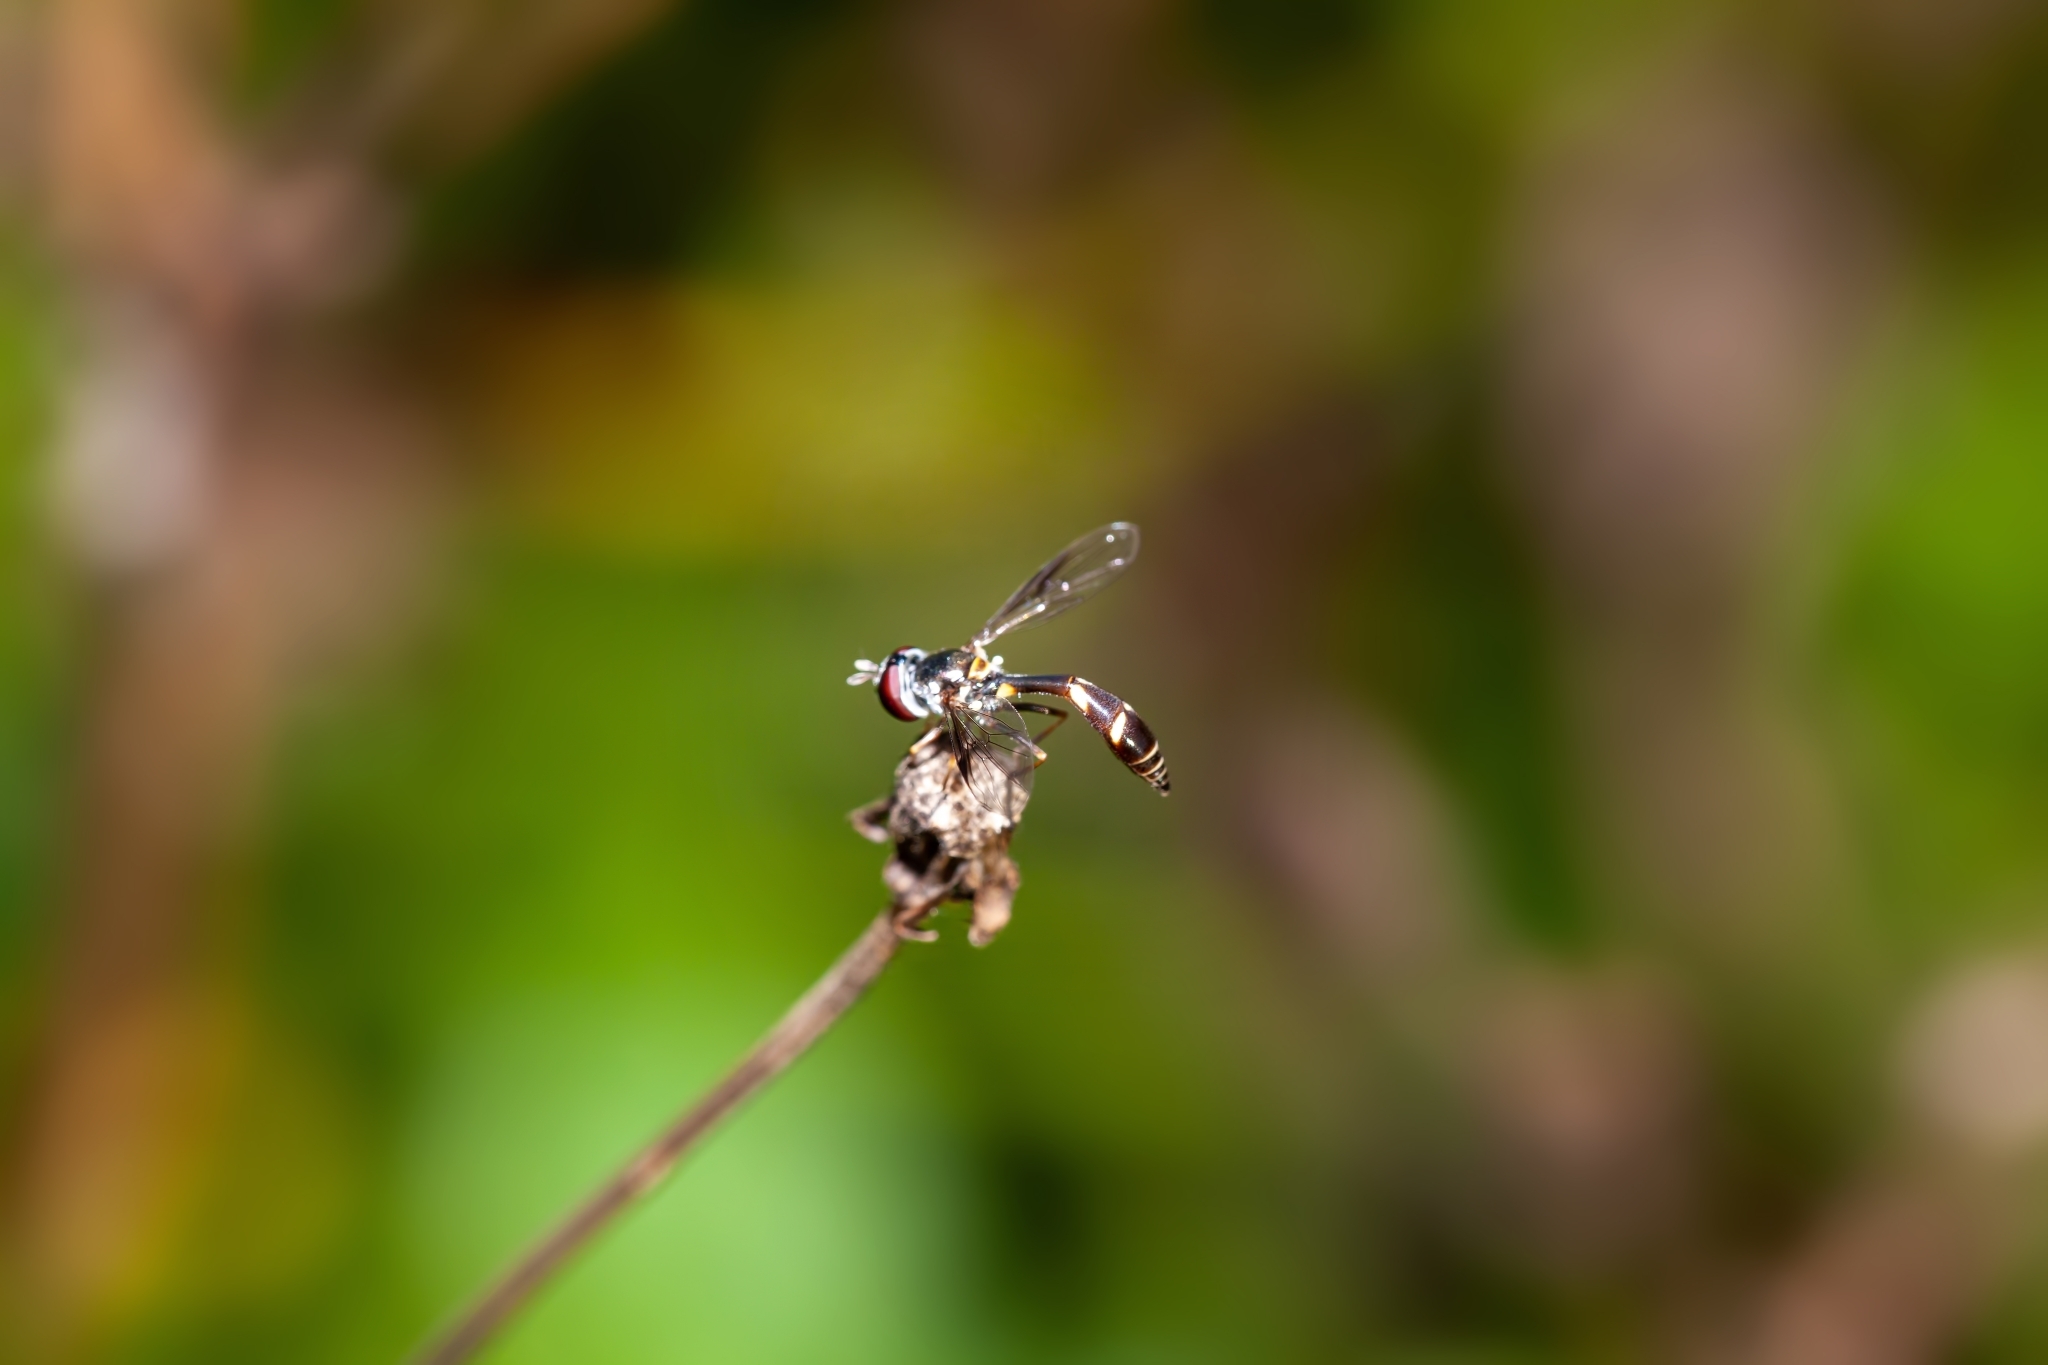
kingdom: Animalia
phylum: Arthropoda
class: Insecta
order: Diptera
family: Syrphidae
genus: Dioprosopa
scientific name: Dioprosopa clavatus
